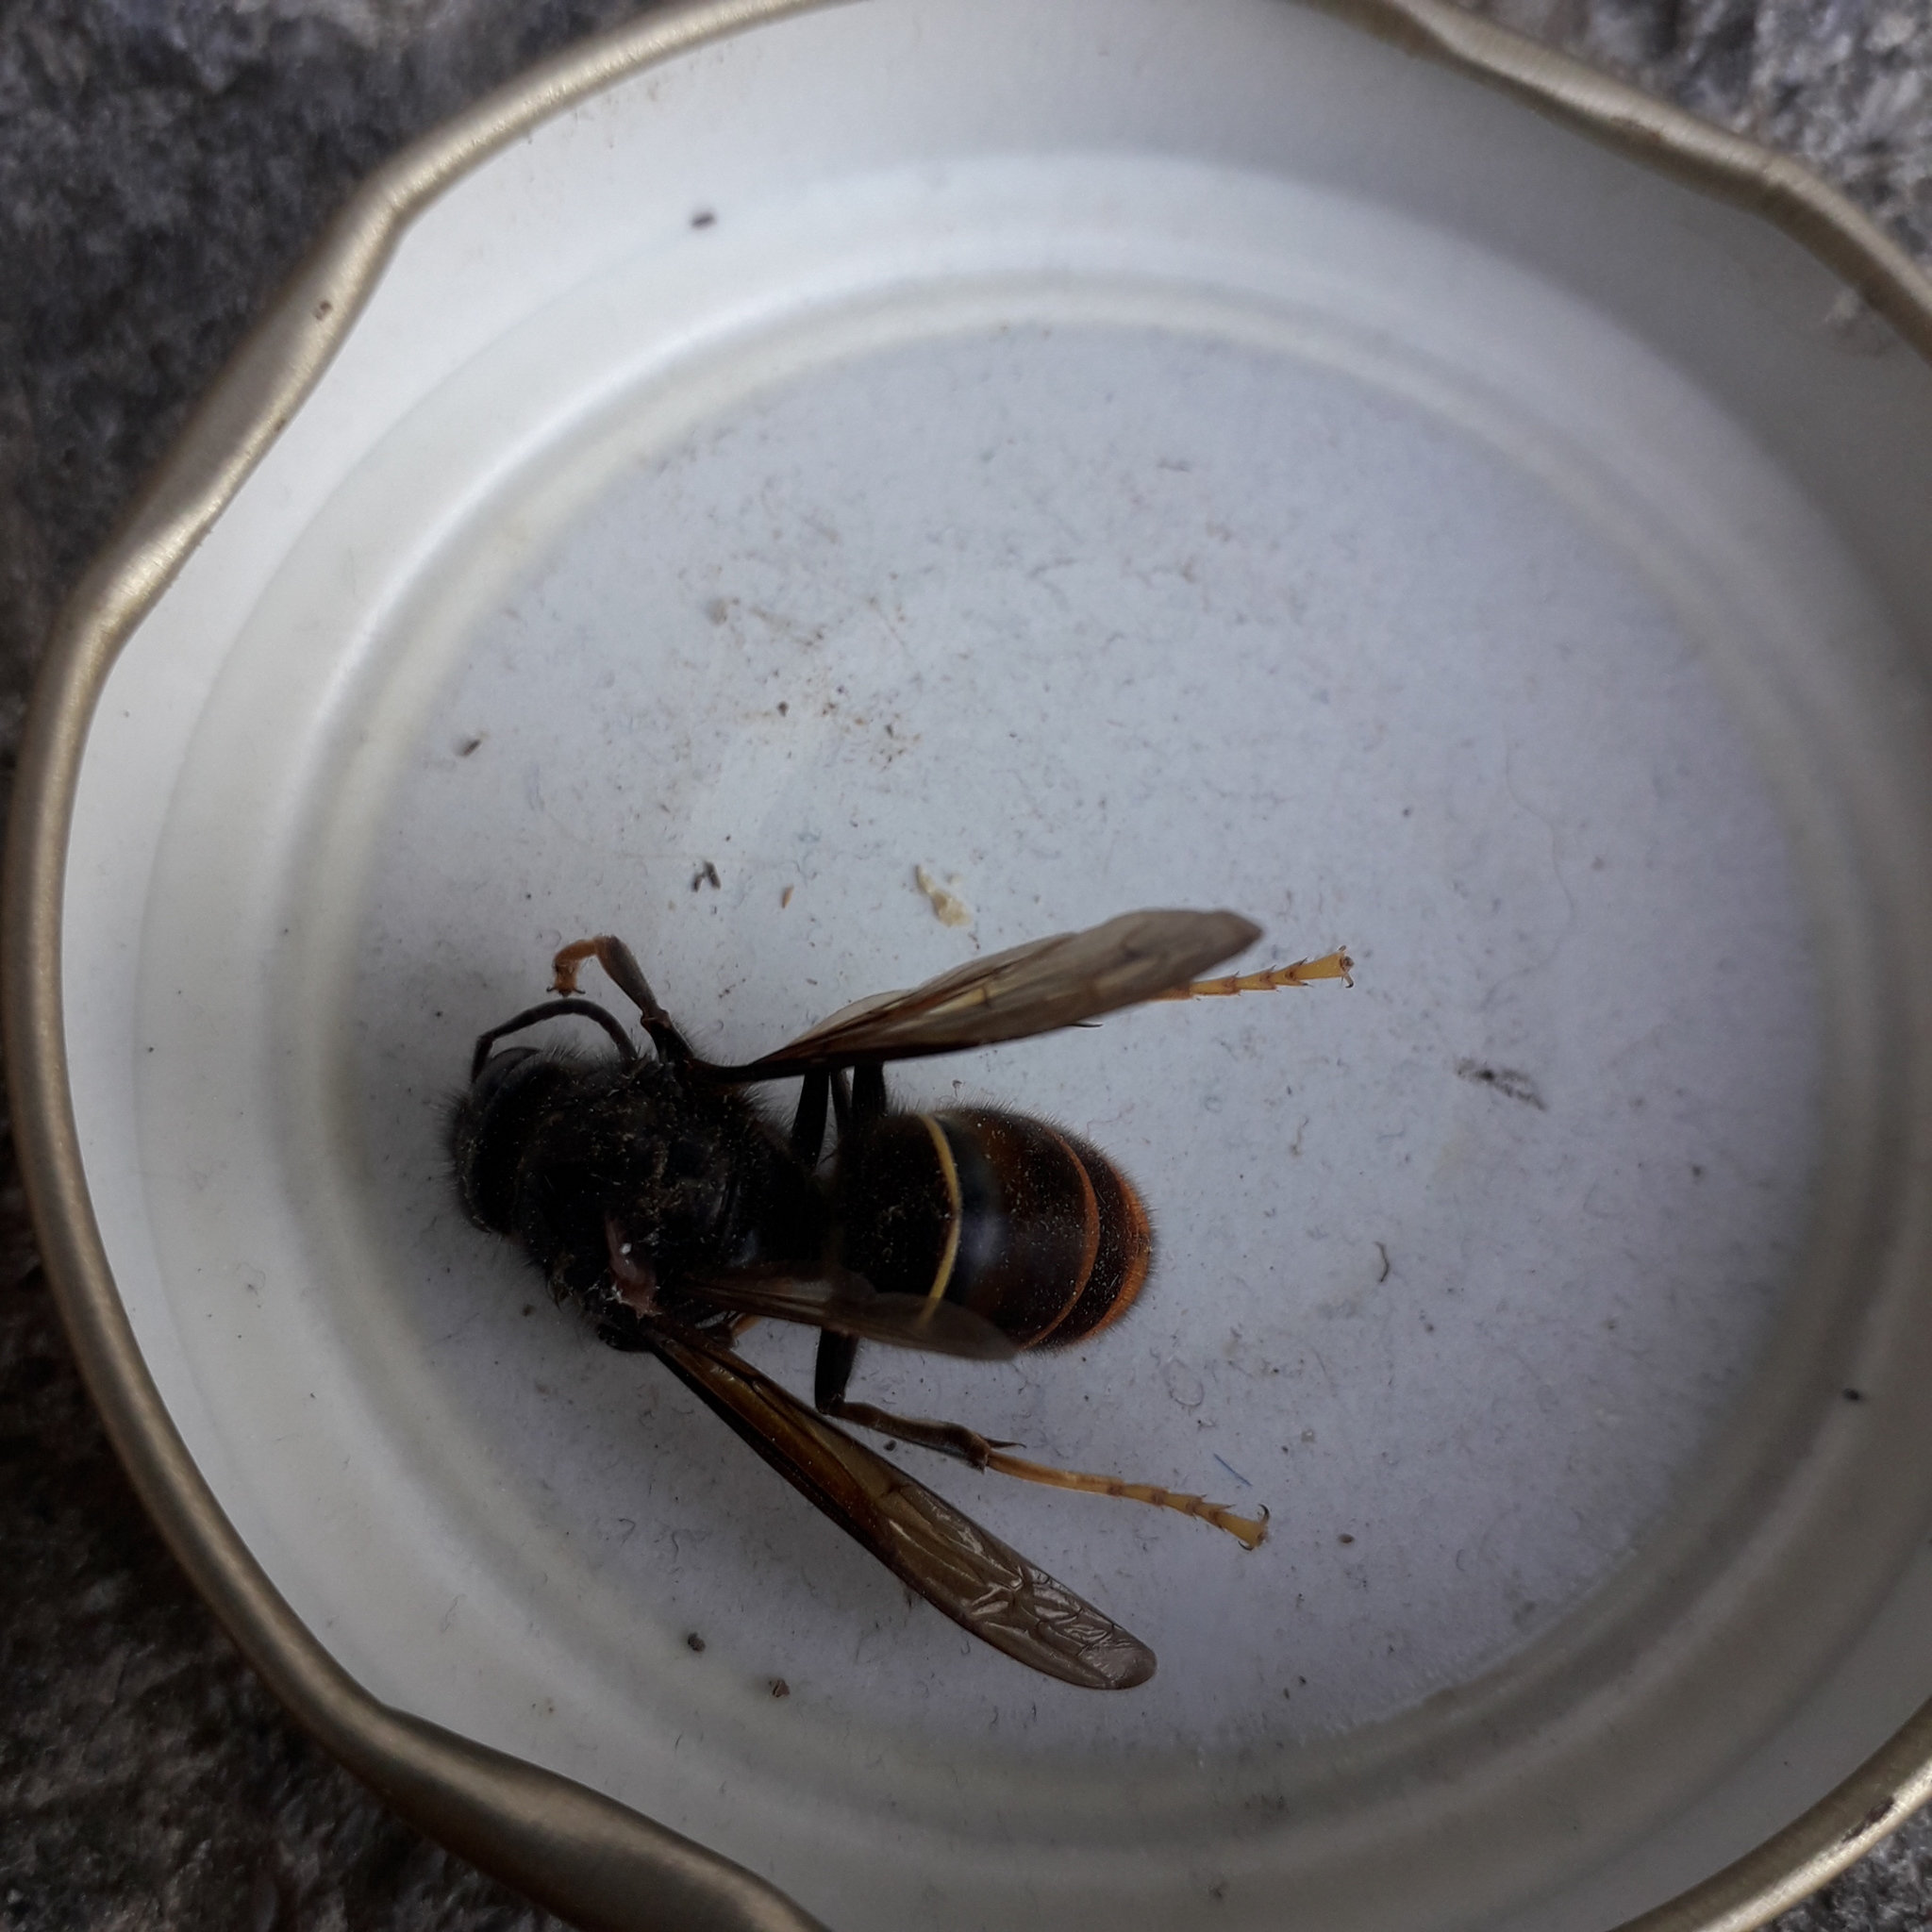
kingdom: Animalia
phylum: Arthropoda
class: Insecta
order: Hymenoptera
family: Vespidae
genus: Vespa
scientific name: Vespa velutina
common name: Asian hornet
